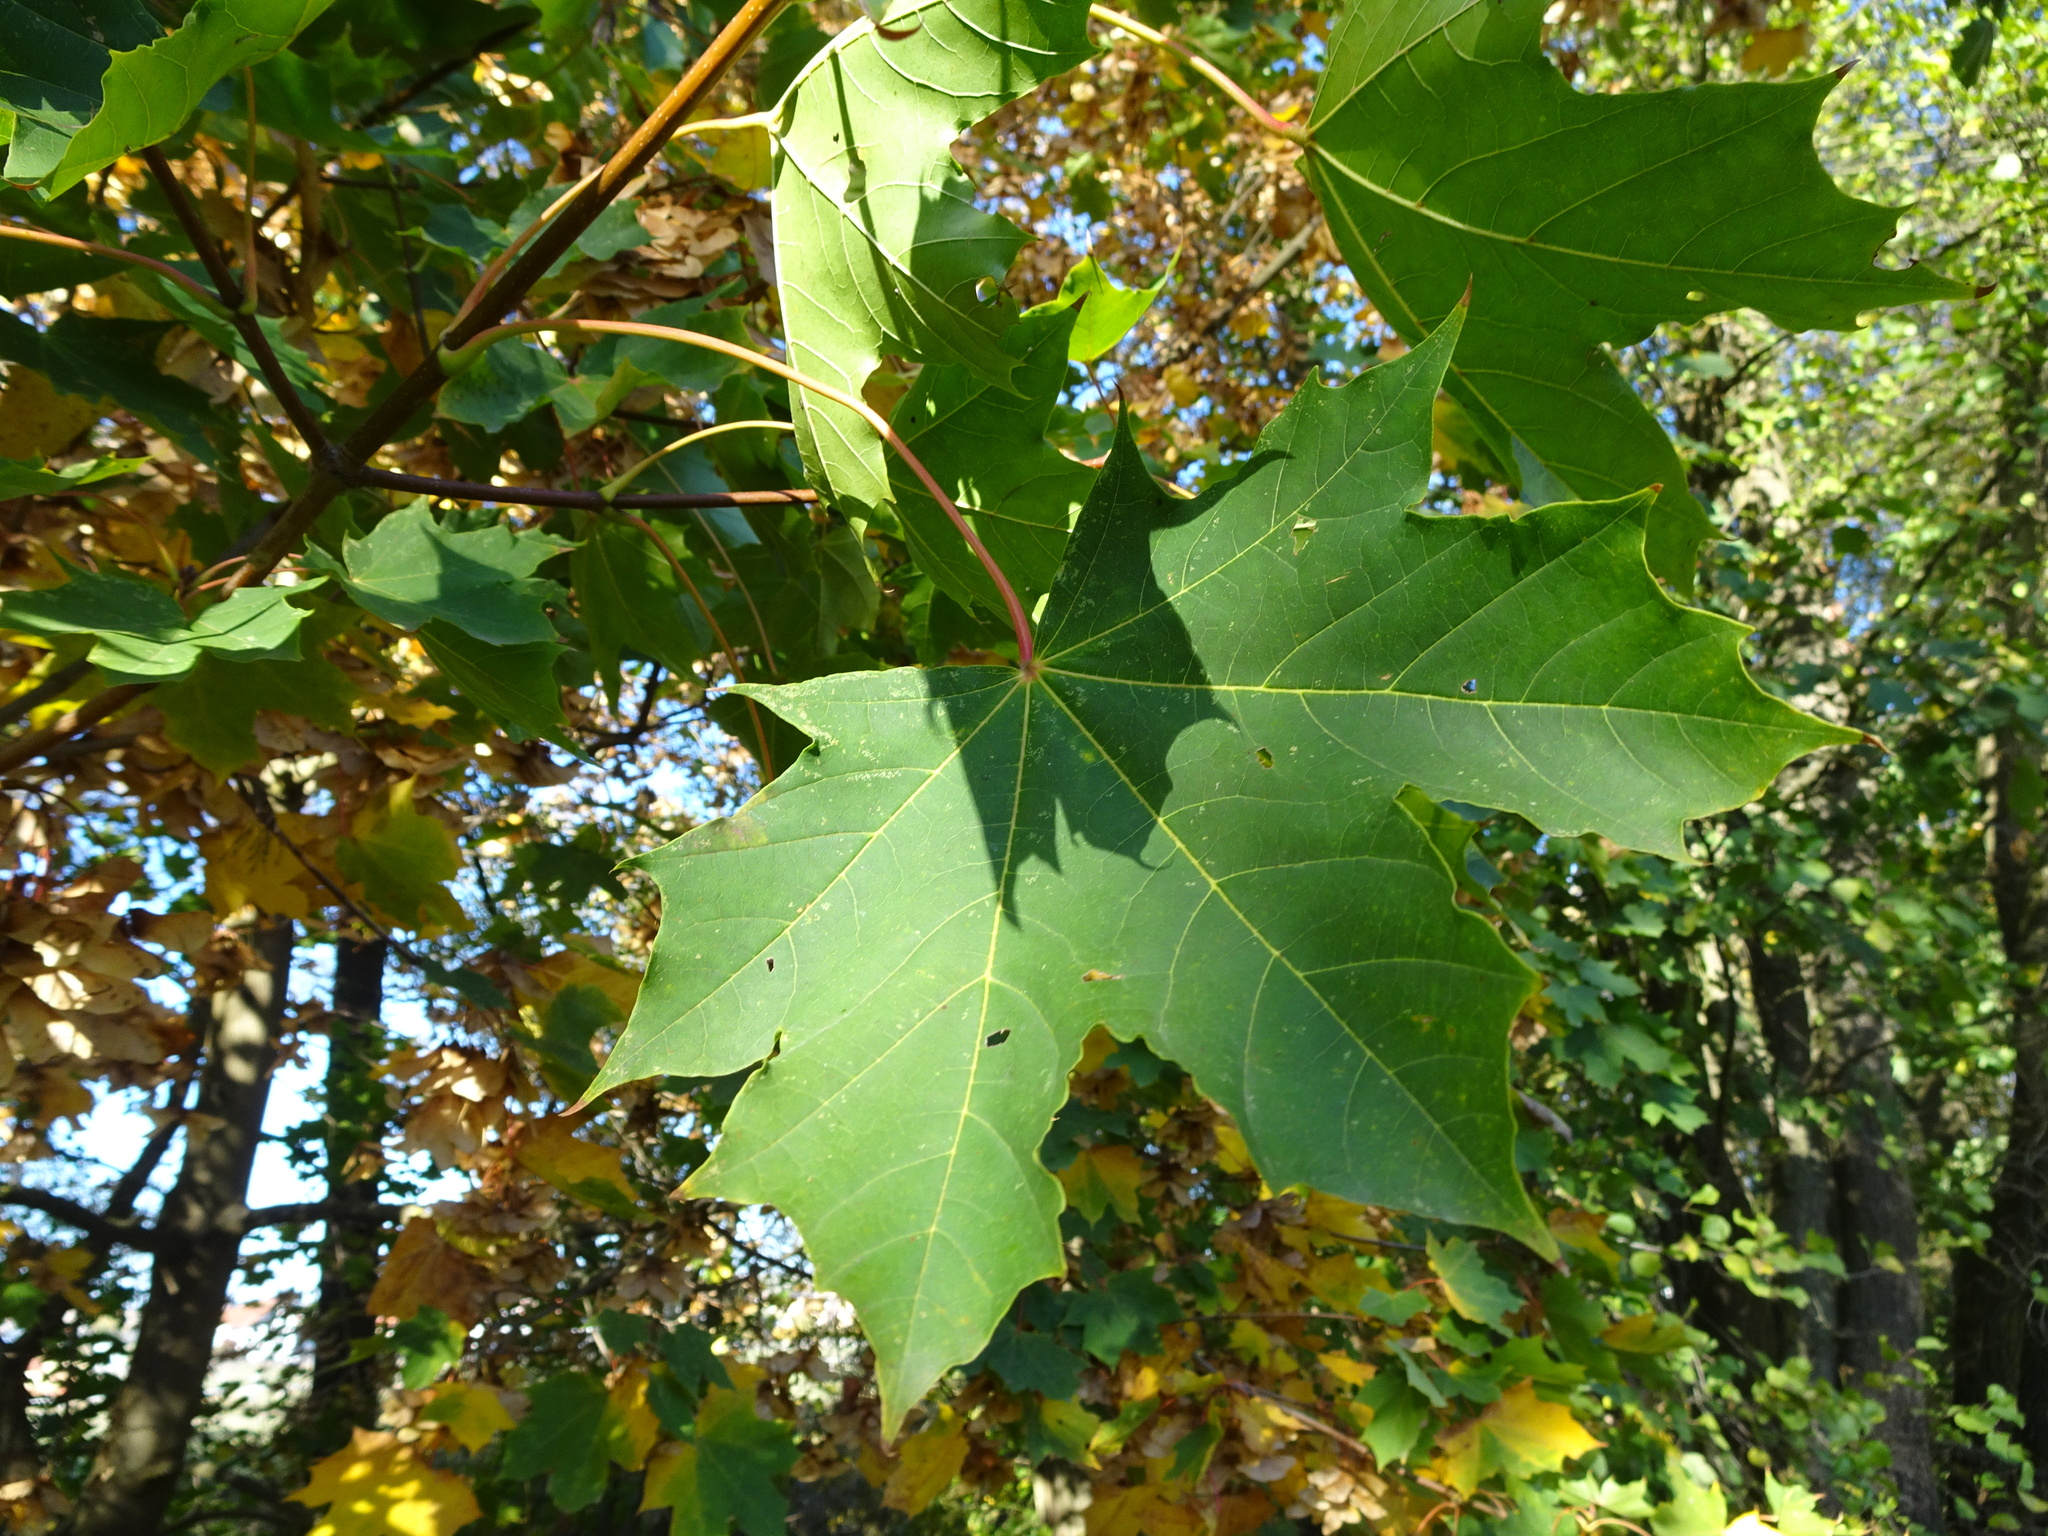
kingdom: Plantae
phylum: Tracheophyta
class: Magnoliopsida
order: Sapindales
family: Sapindaceae
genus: Acer
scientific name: Acer platanoides
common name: Norway maple
